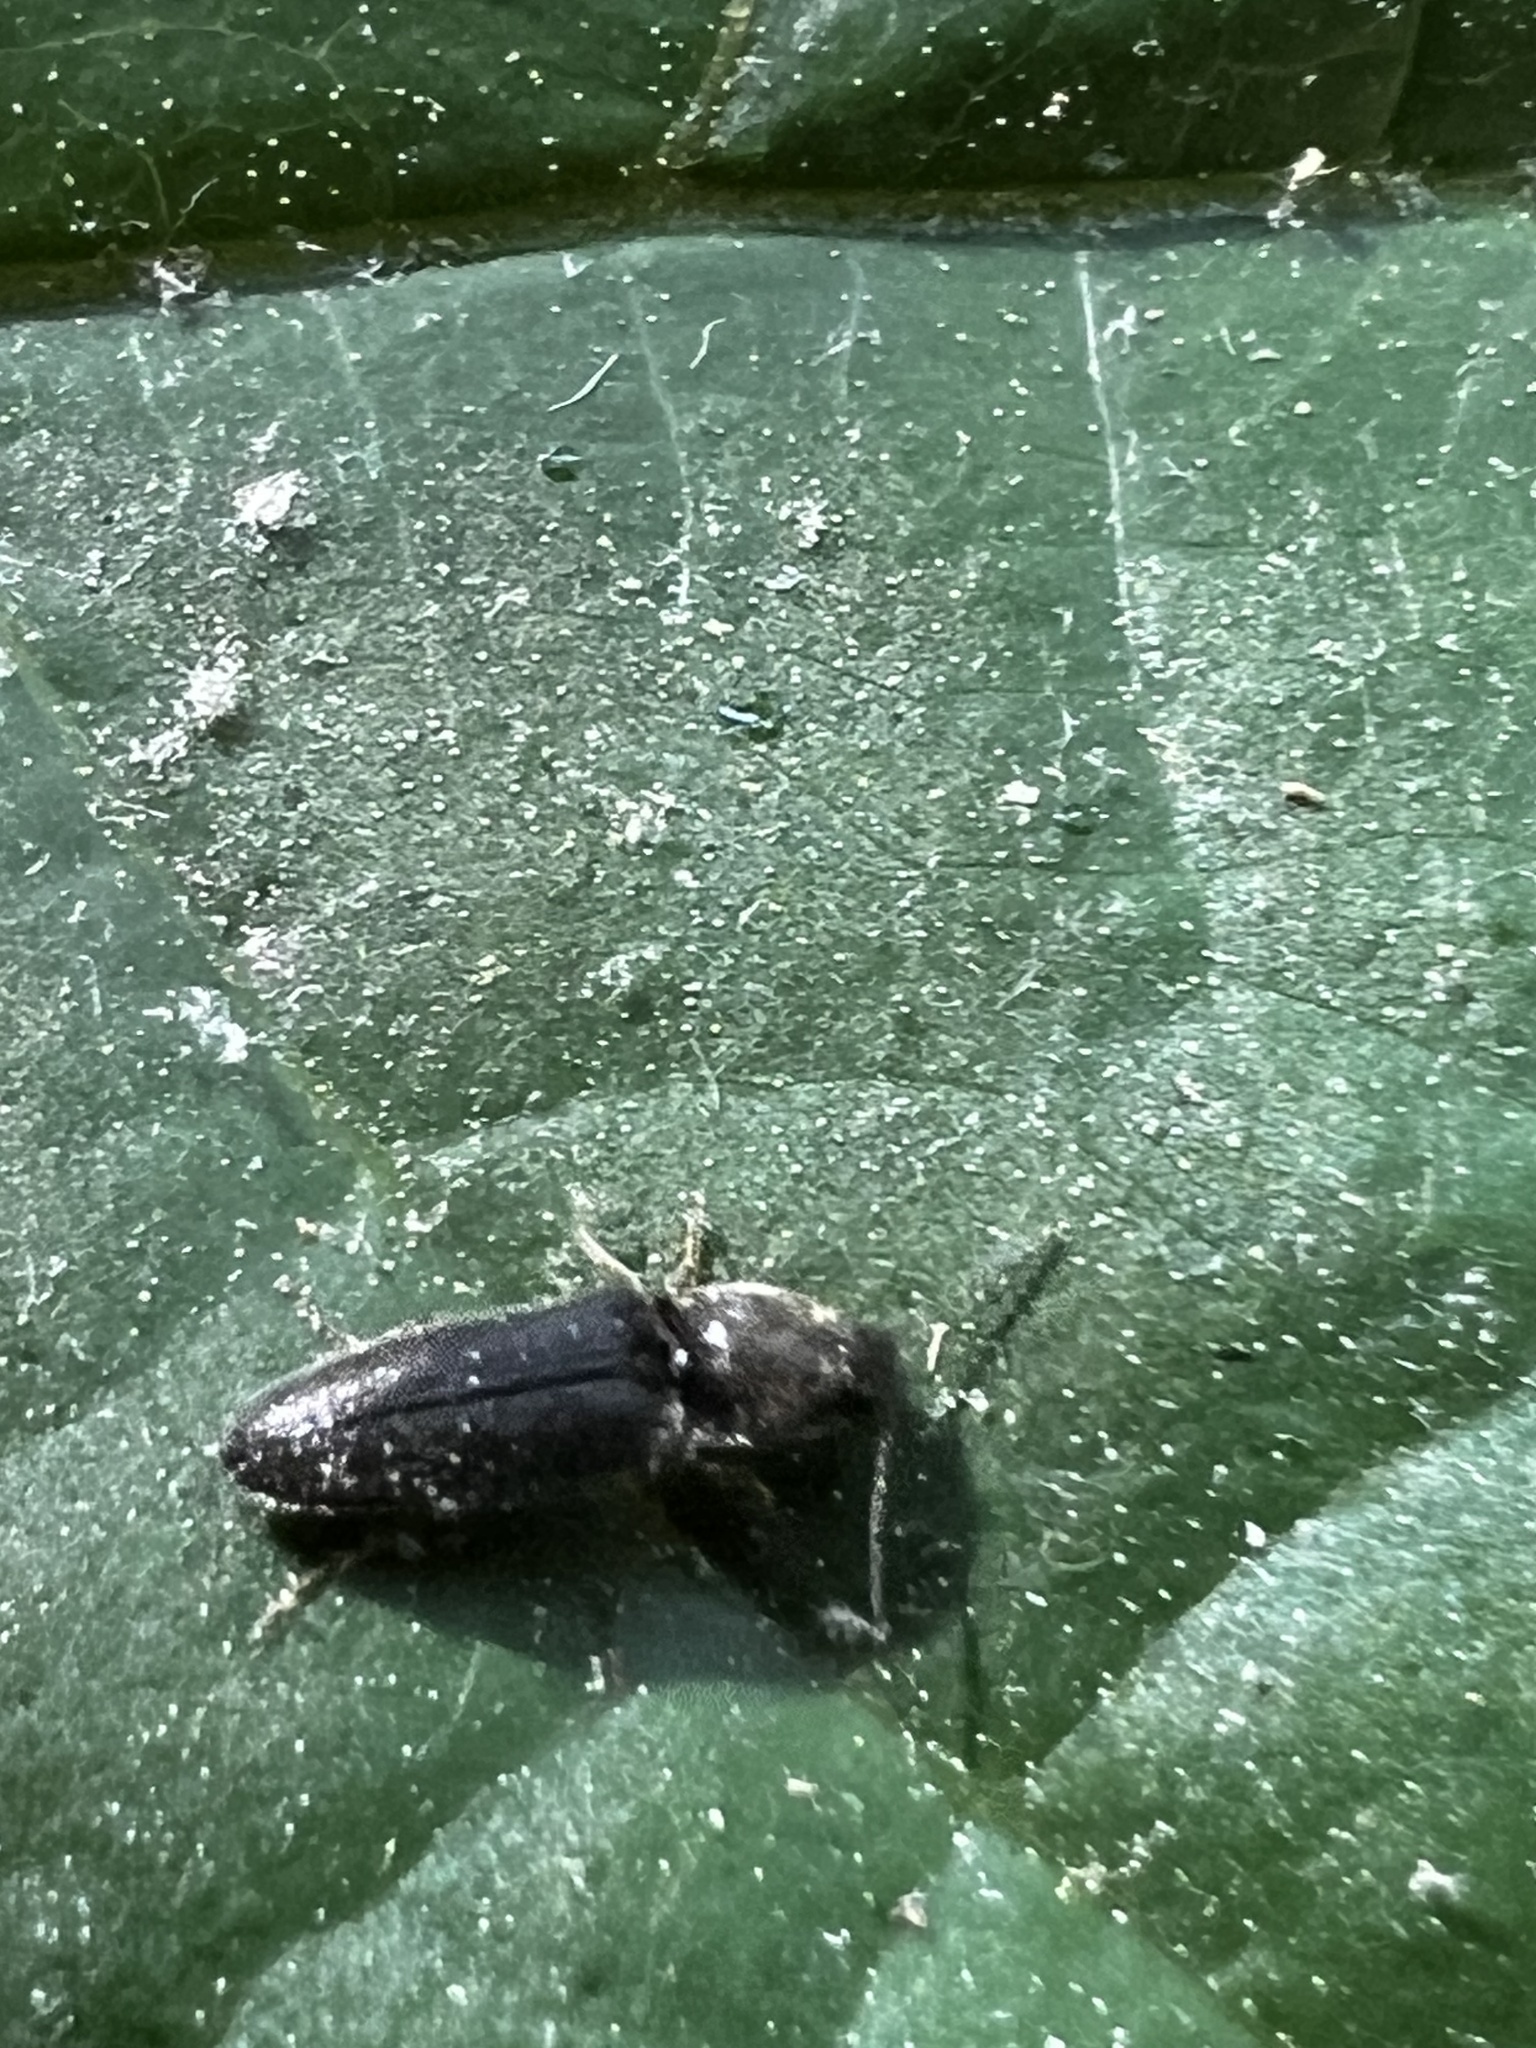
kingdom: Animalia
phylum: Arthropoda
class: Insecta
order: Coleoptera
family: Elateridae
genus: Limonius
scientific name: Limonius quercinus
